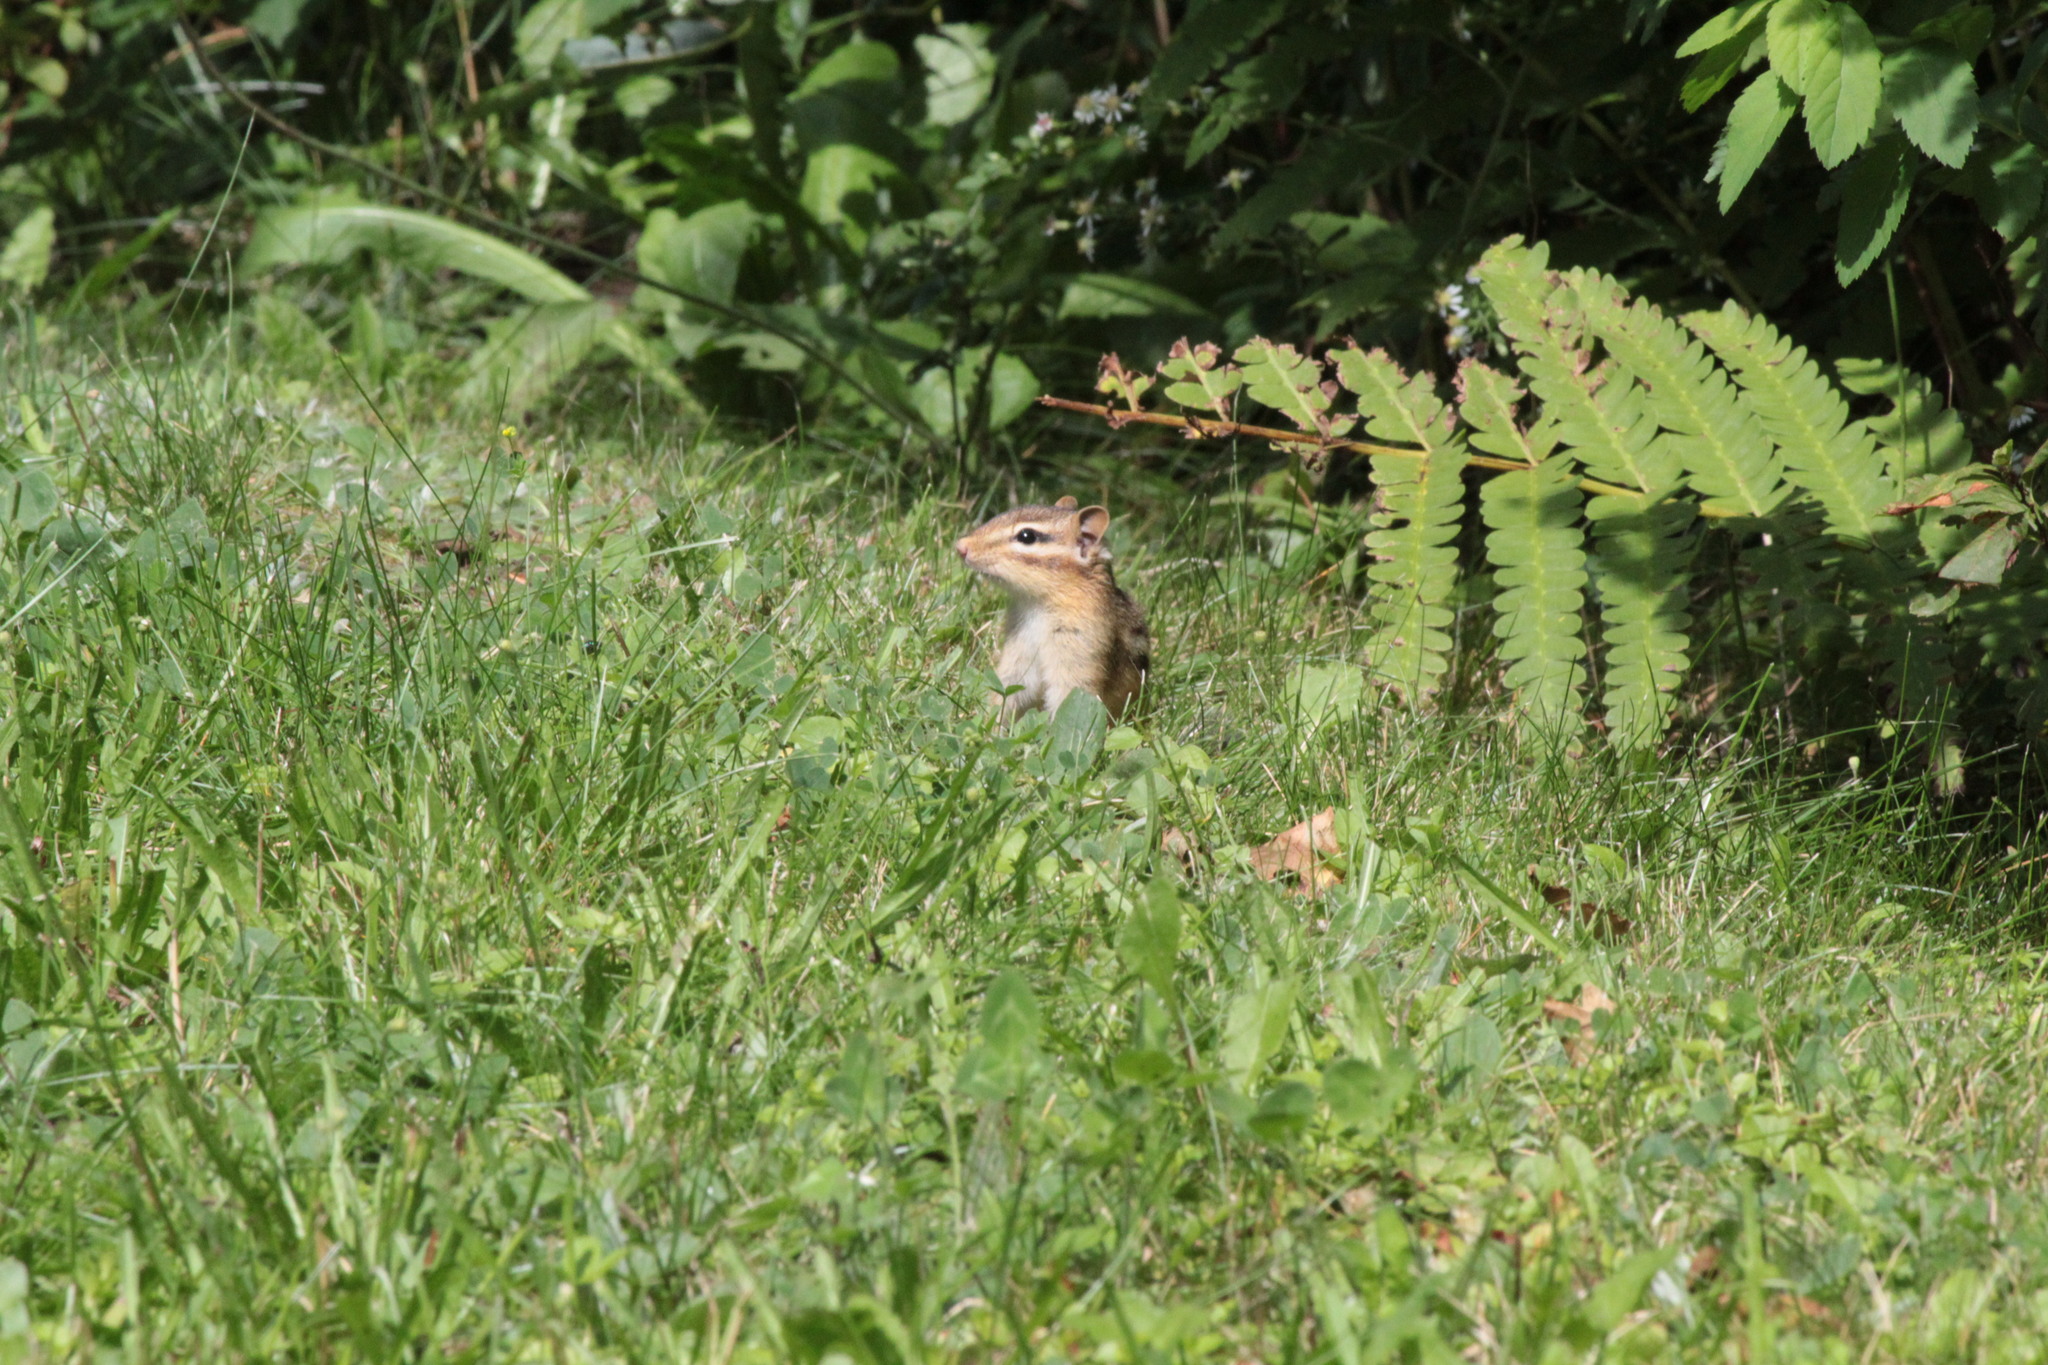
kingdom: Animalia
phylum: Chordata
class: Mammalia
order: Rodentia
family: Sciuridae
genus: Tamias
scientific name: Tamias striatus
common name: Eastern chipmunk
